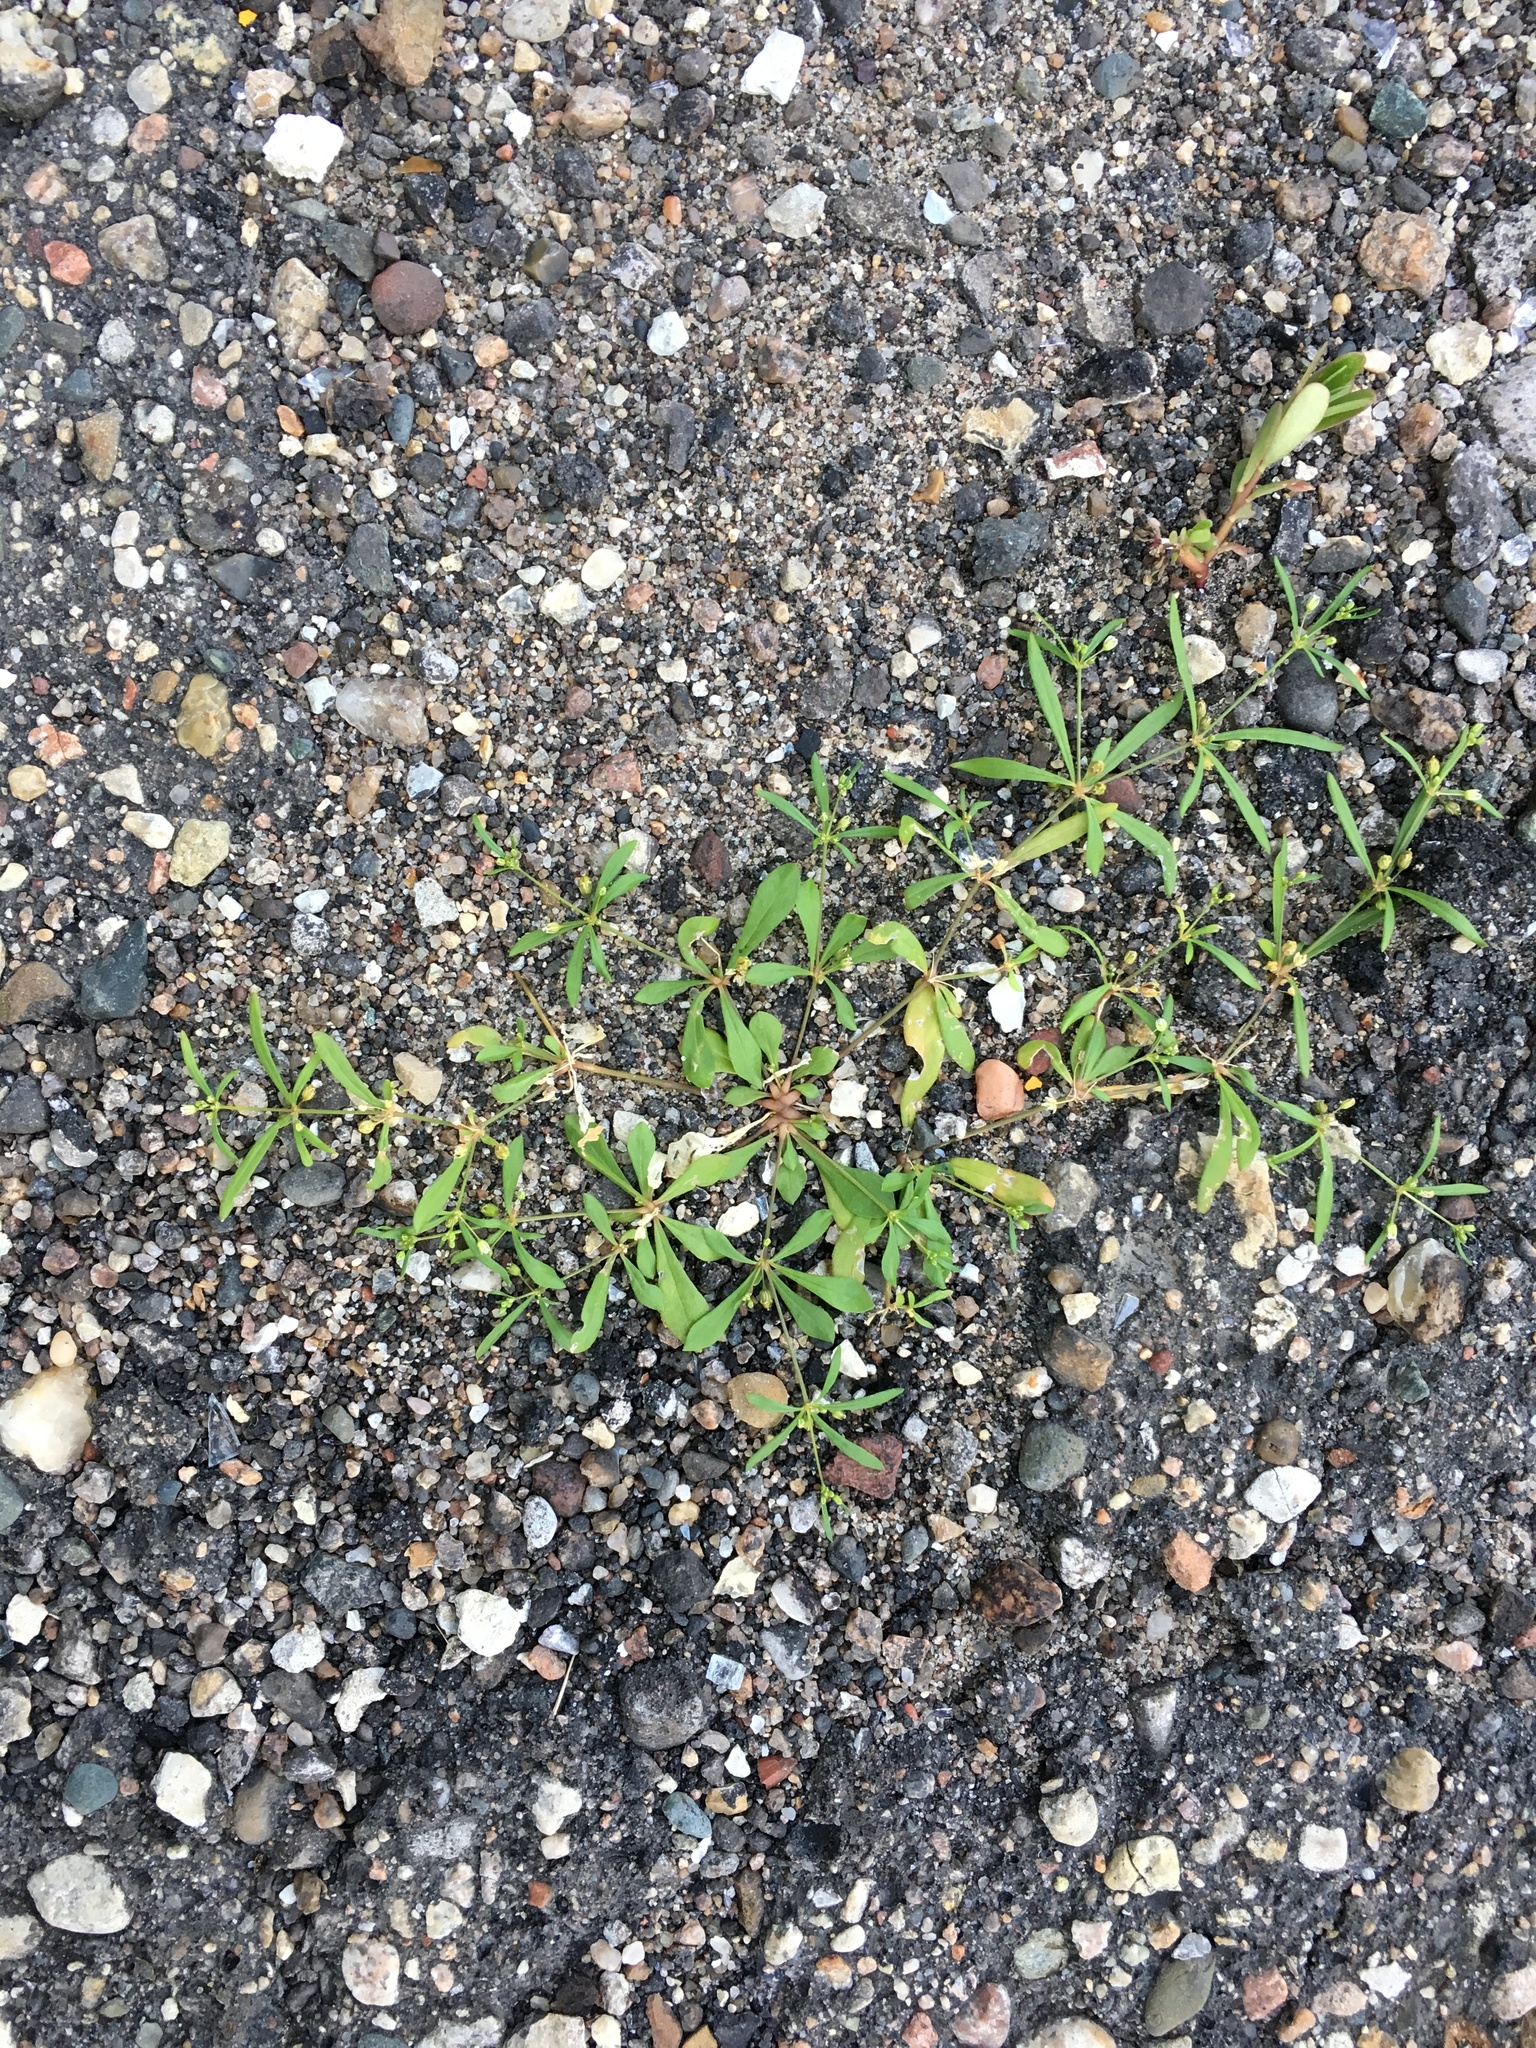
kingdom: Plantae
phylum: Tracheophyta
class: Magnoliopsida
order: Caryophyllales
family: Molluginaceae
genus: Mollugo
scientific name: Mollugo verticillata
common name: Green carpetweed
